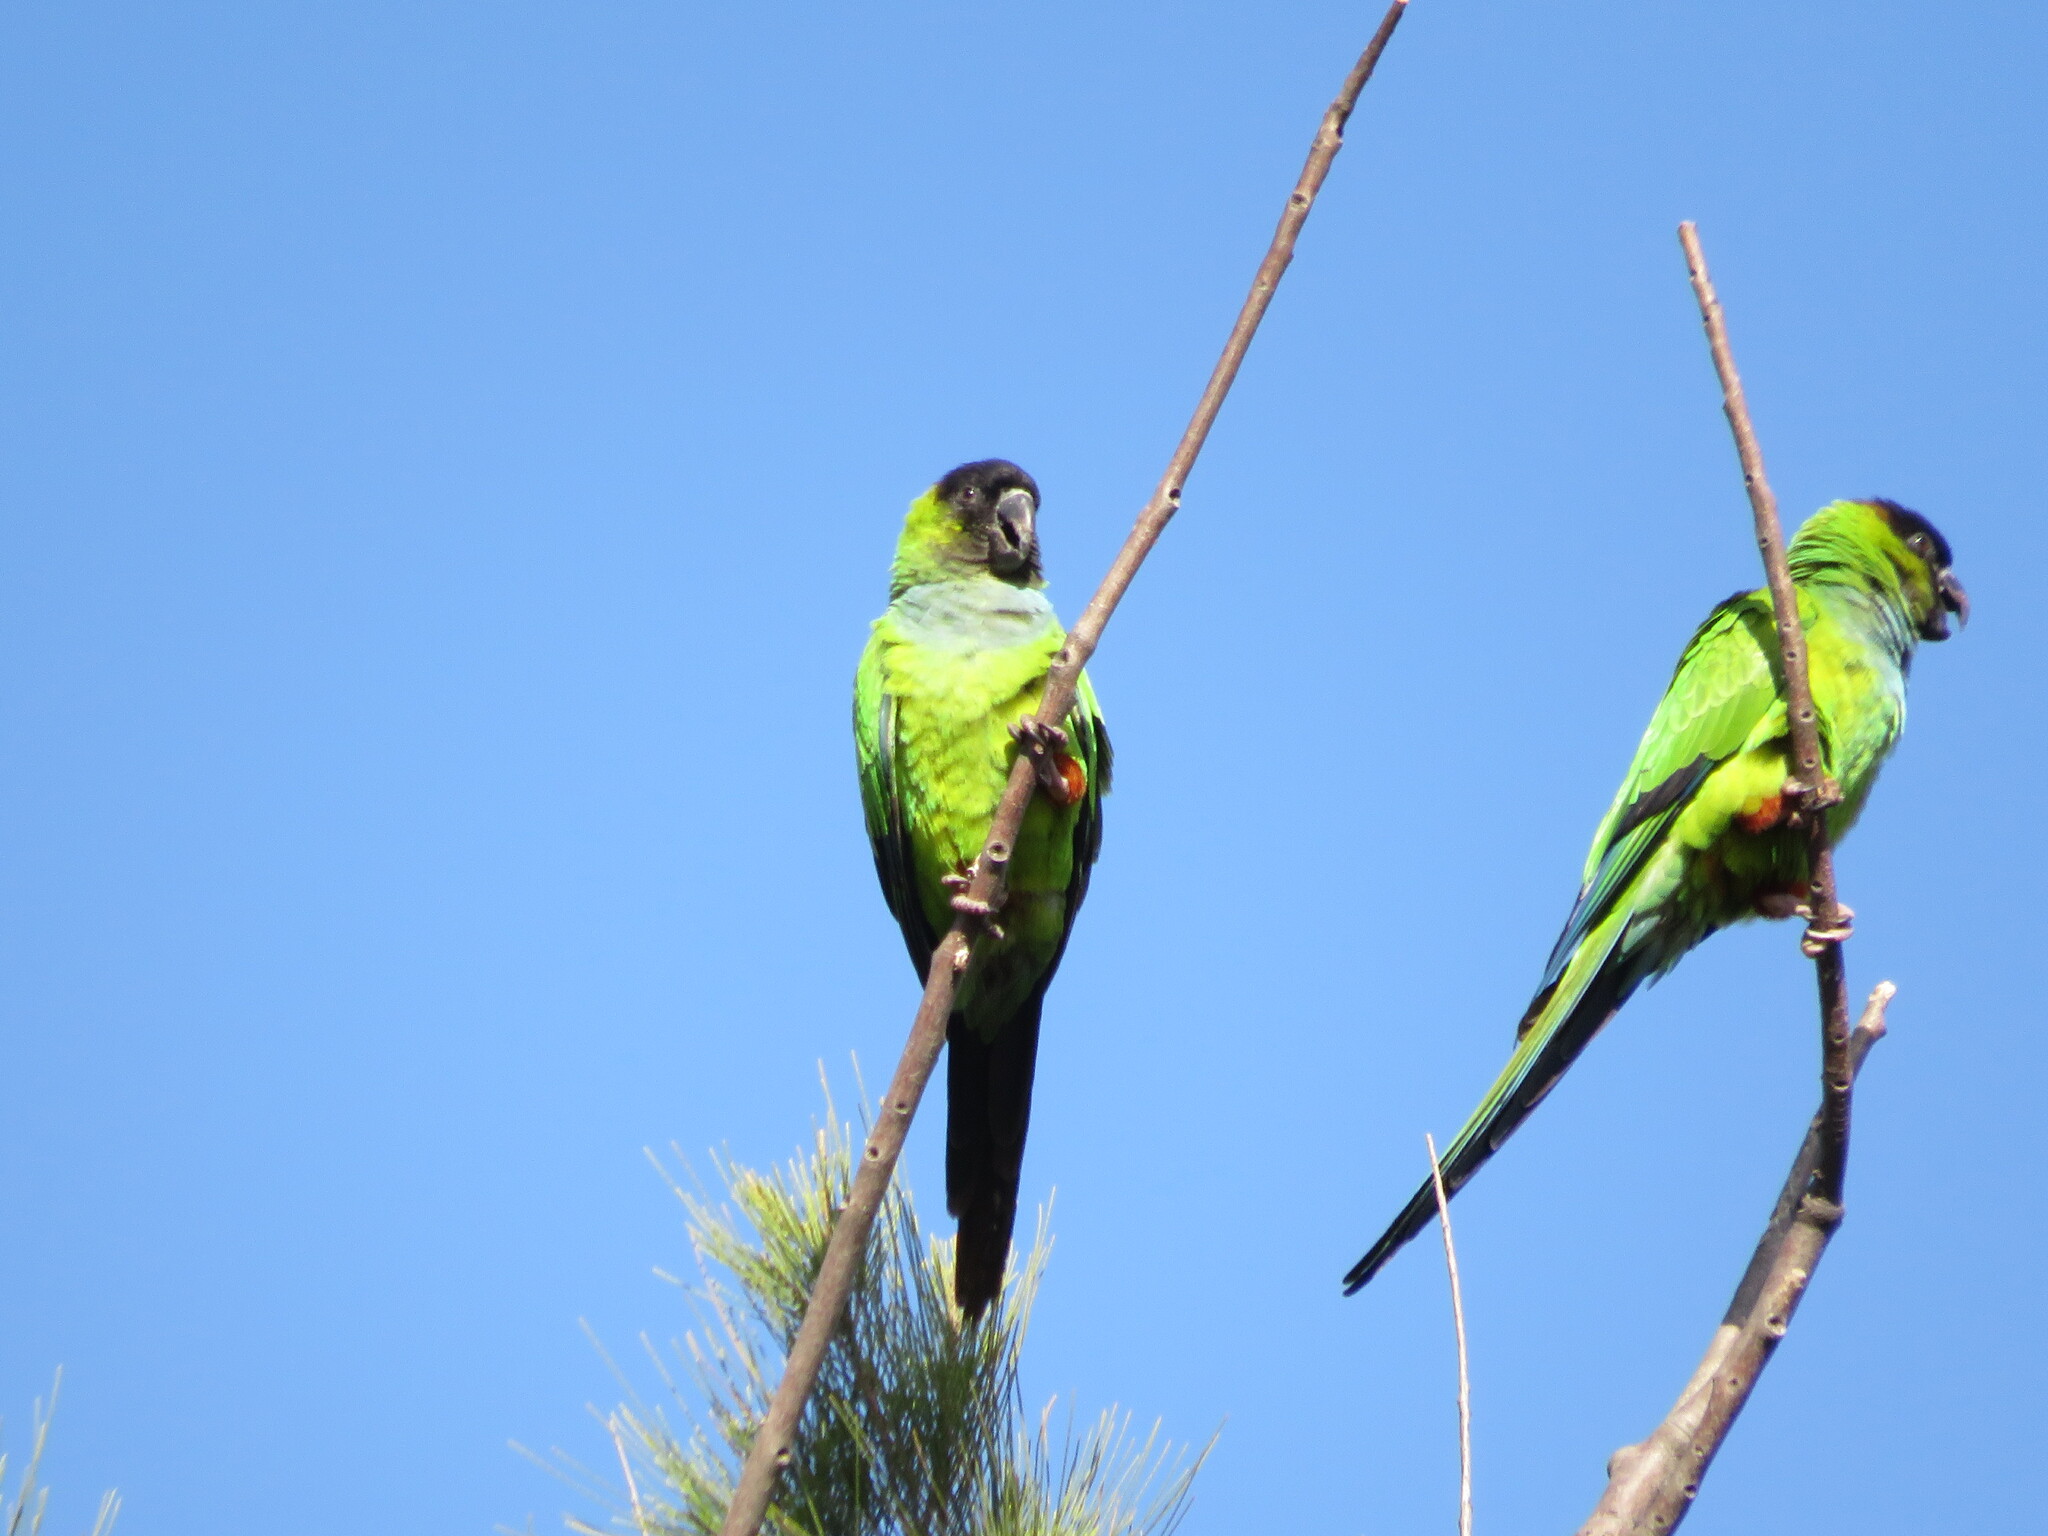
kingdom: Animalia
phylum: Chordata
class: Aves
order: Psittaciformes
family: Psittacidae
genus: Nandayus
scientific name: Nandayus nenday
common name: Nanday parakeet
